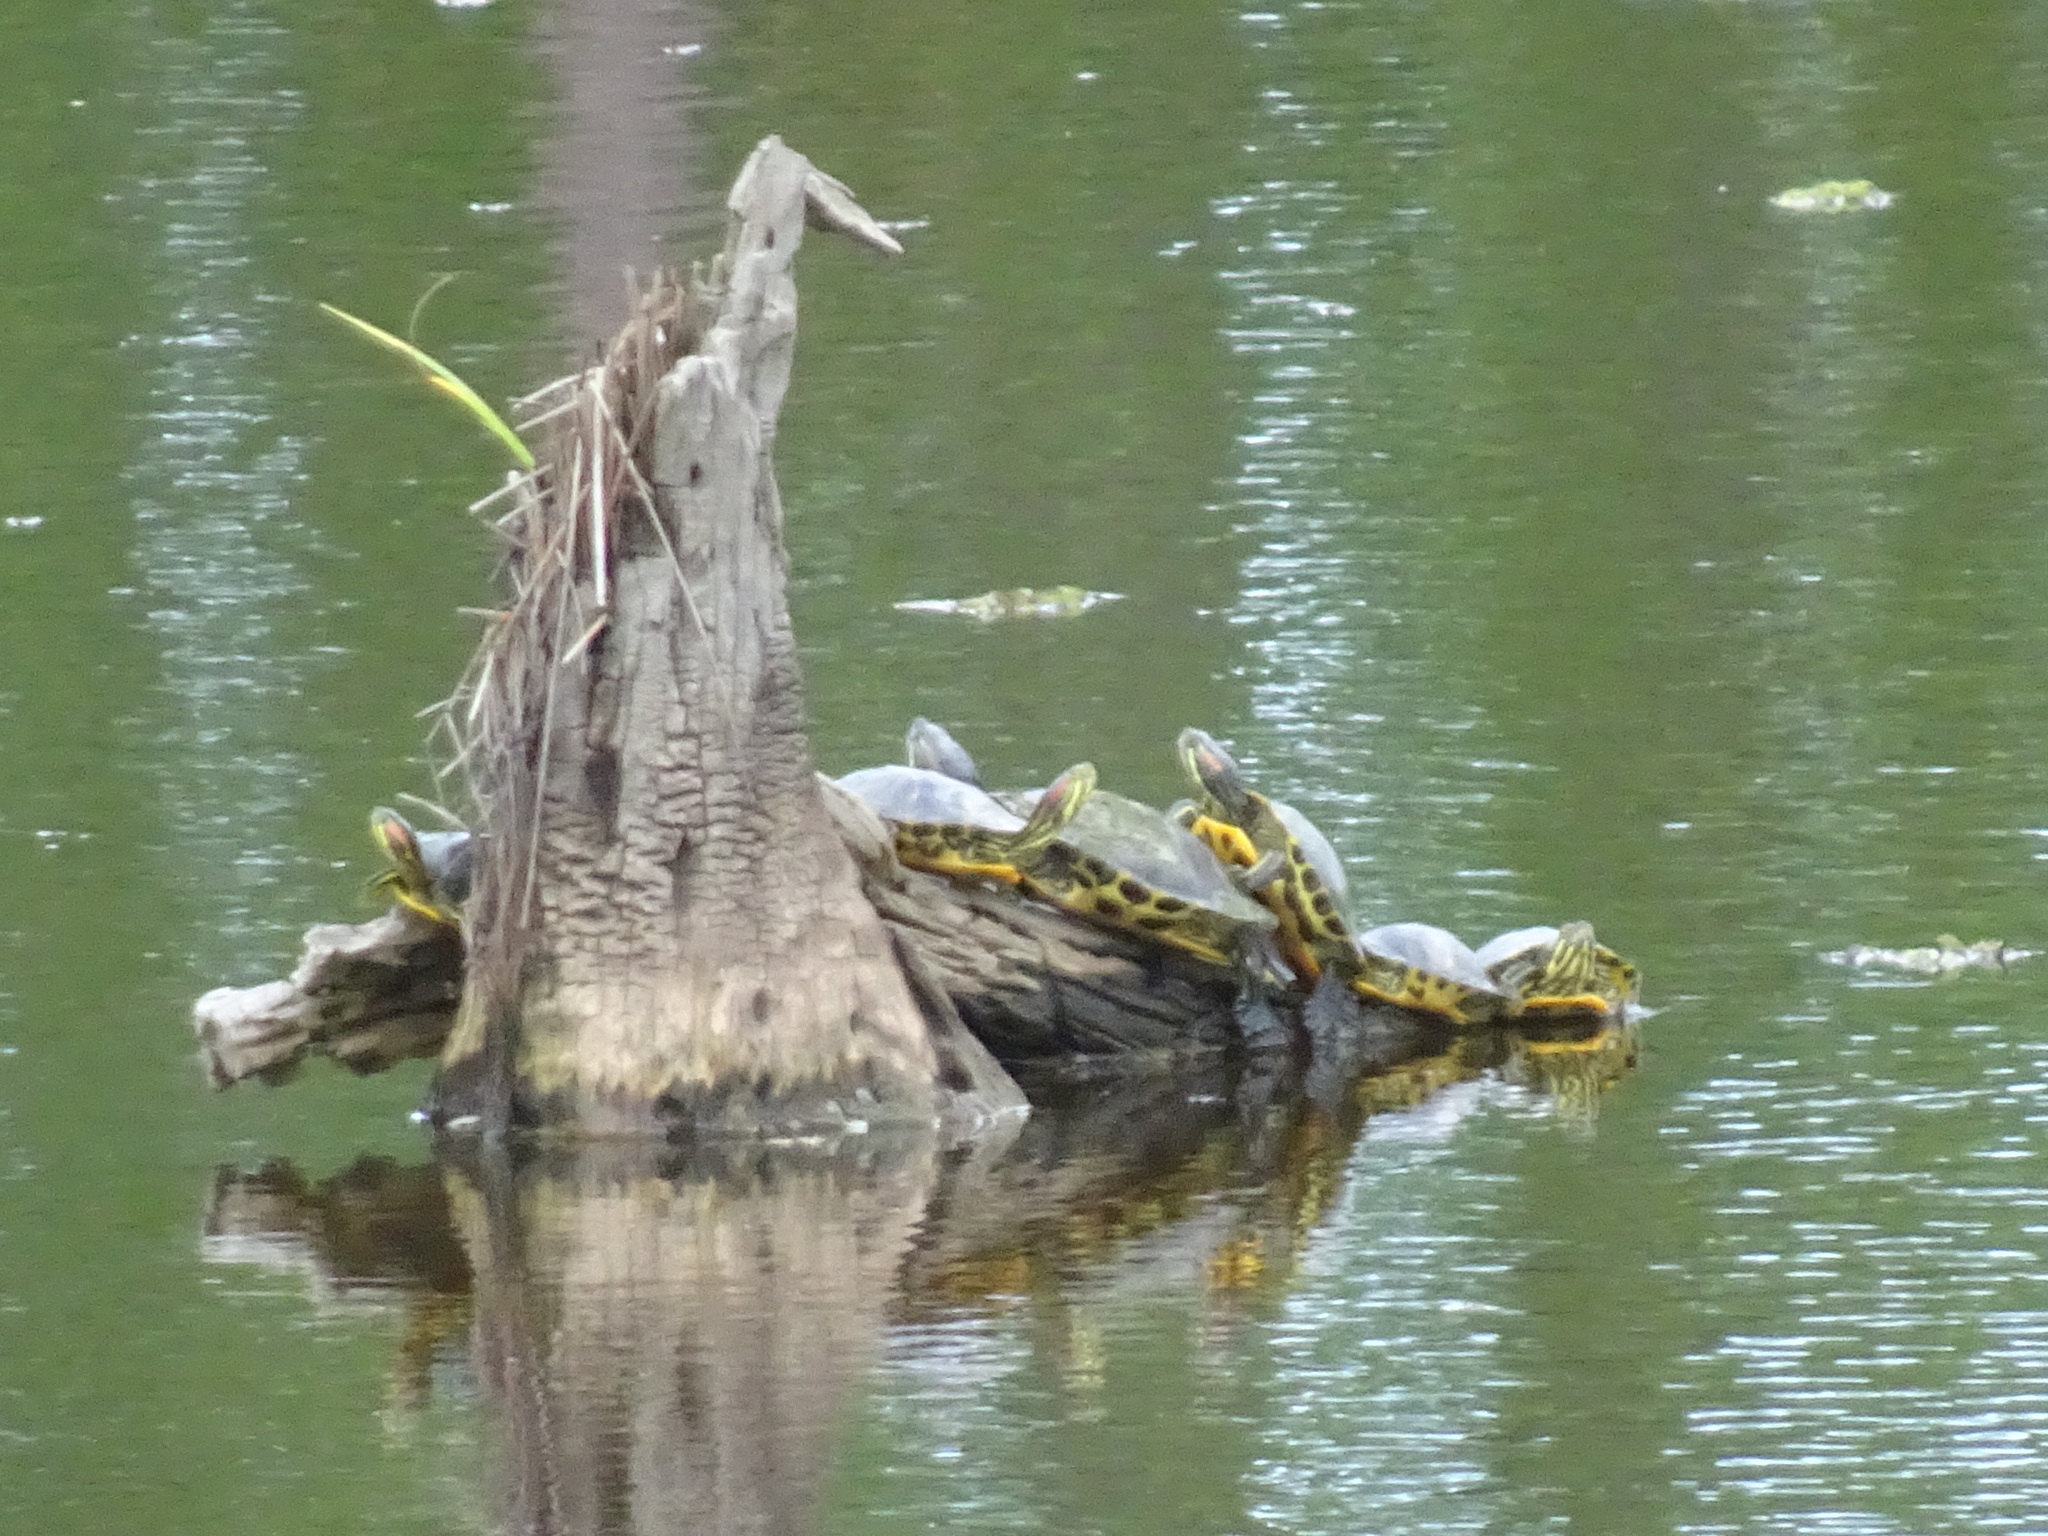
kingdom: Animalia
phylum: Chordata
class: Testudines
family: Emydidae
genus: Trachemys
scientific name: Trachemys scripta
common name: Slider
